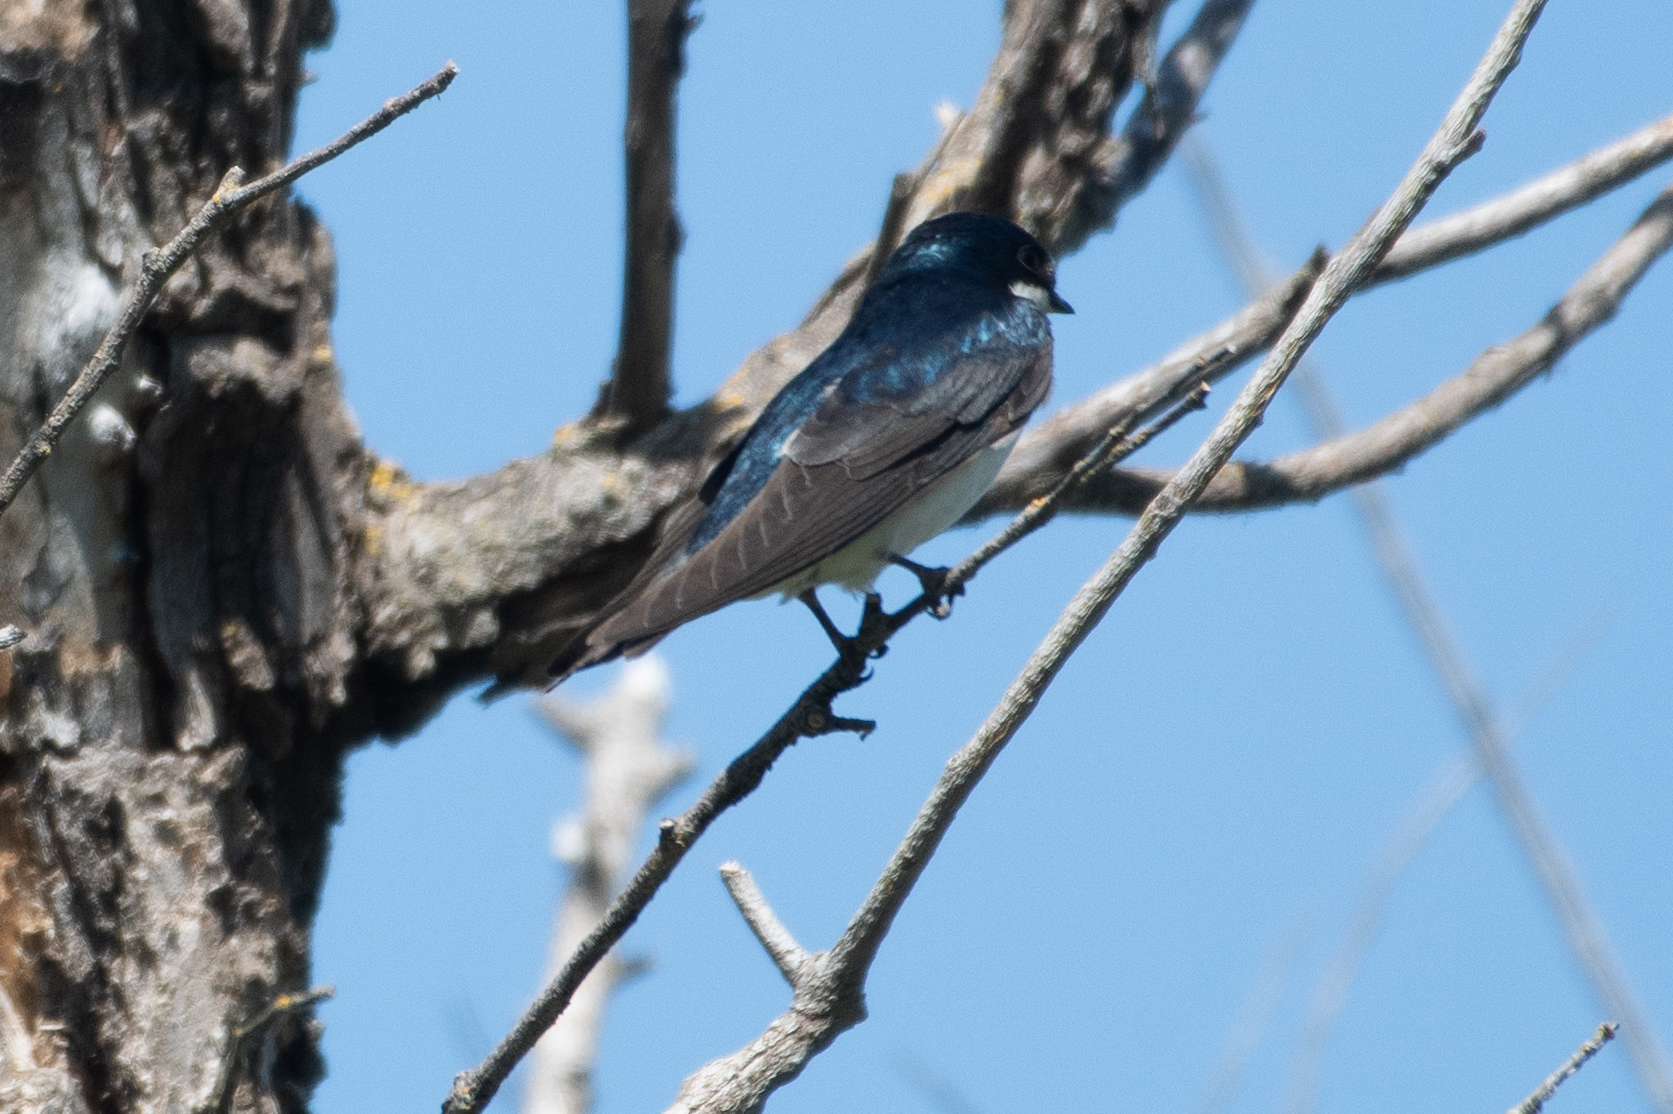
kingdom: Animalia
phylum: Chordata
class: Aves
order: Passeriformes
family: Hirundinidae
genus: Tachycineta
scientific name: Tachycineta bicolor
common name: Tree swallow
